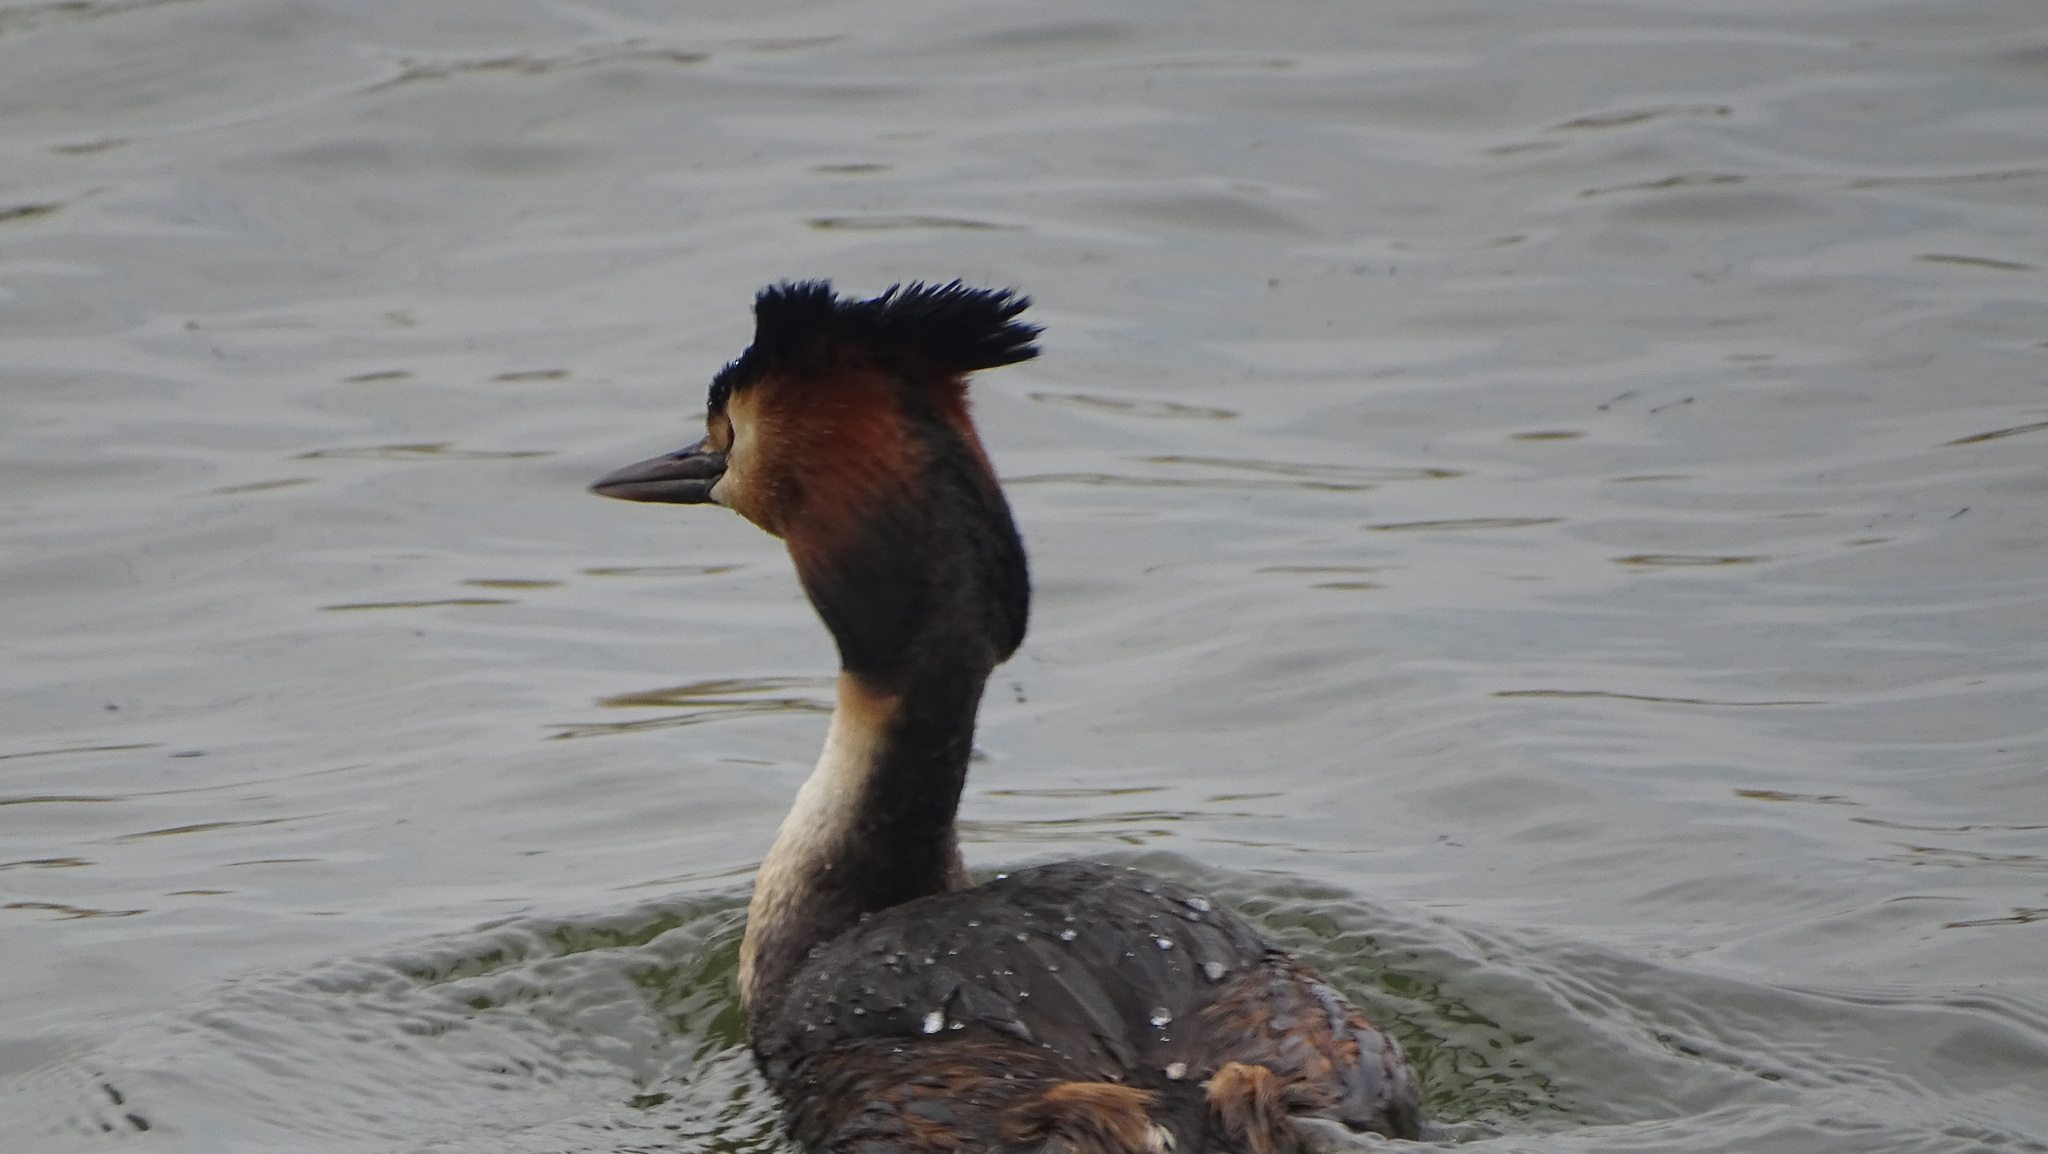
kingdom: Animalia
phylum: Chordata
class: Aves
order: Podicipediformes
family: Podicipedidae
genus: Podiceps
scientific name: Podiceps cristatus
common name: Great crested grebe
